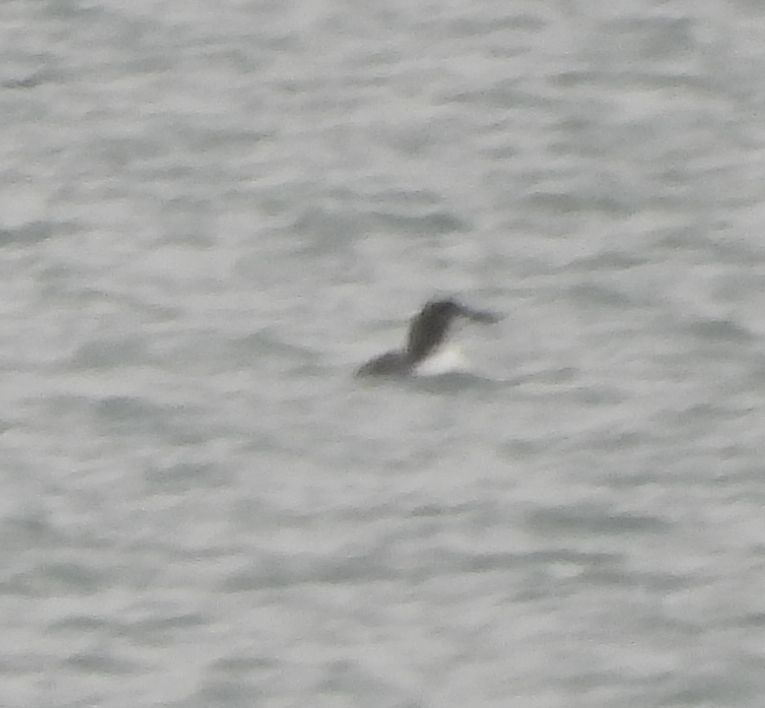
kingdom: Animalia
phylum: Chordata
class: Aves
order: Gaviiformes
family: Gaviidae
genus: Gavia
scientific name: Gavia immer
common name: Common loon
